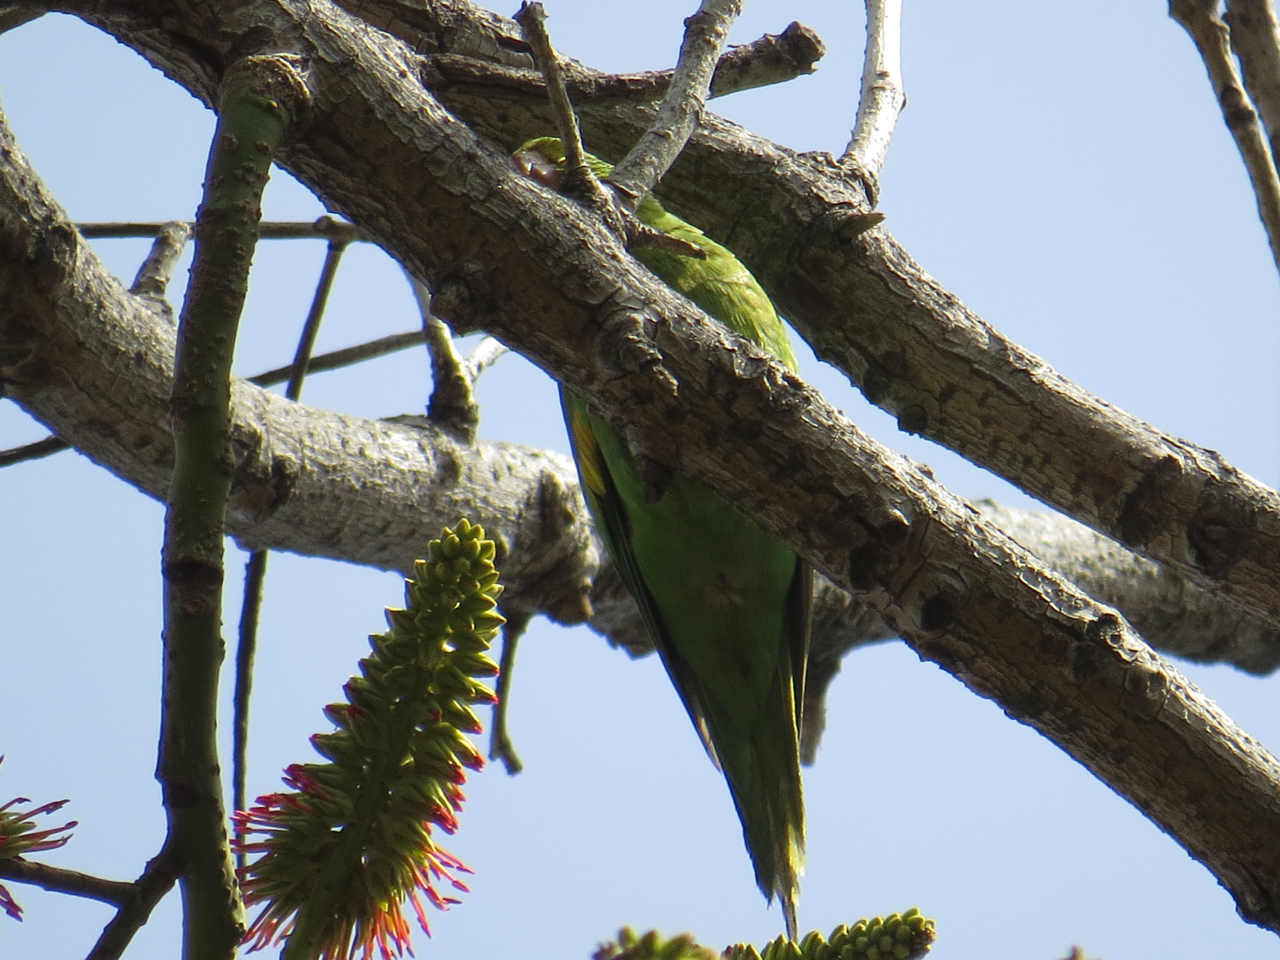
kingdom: Animalia
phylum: Chordata
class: Aves
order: Psittaciformes
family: Psittacidae
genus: Brotogeris
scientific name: Brotogeris chiriri
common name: Yellow-chevroned parakeet
